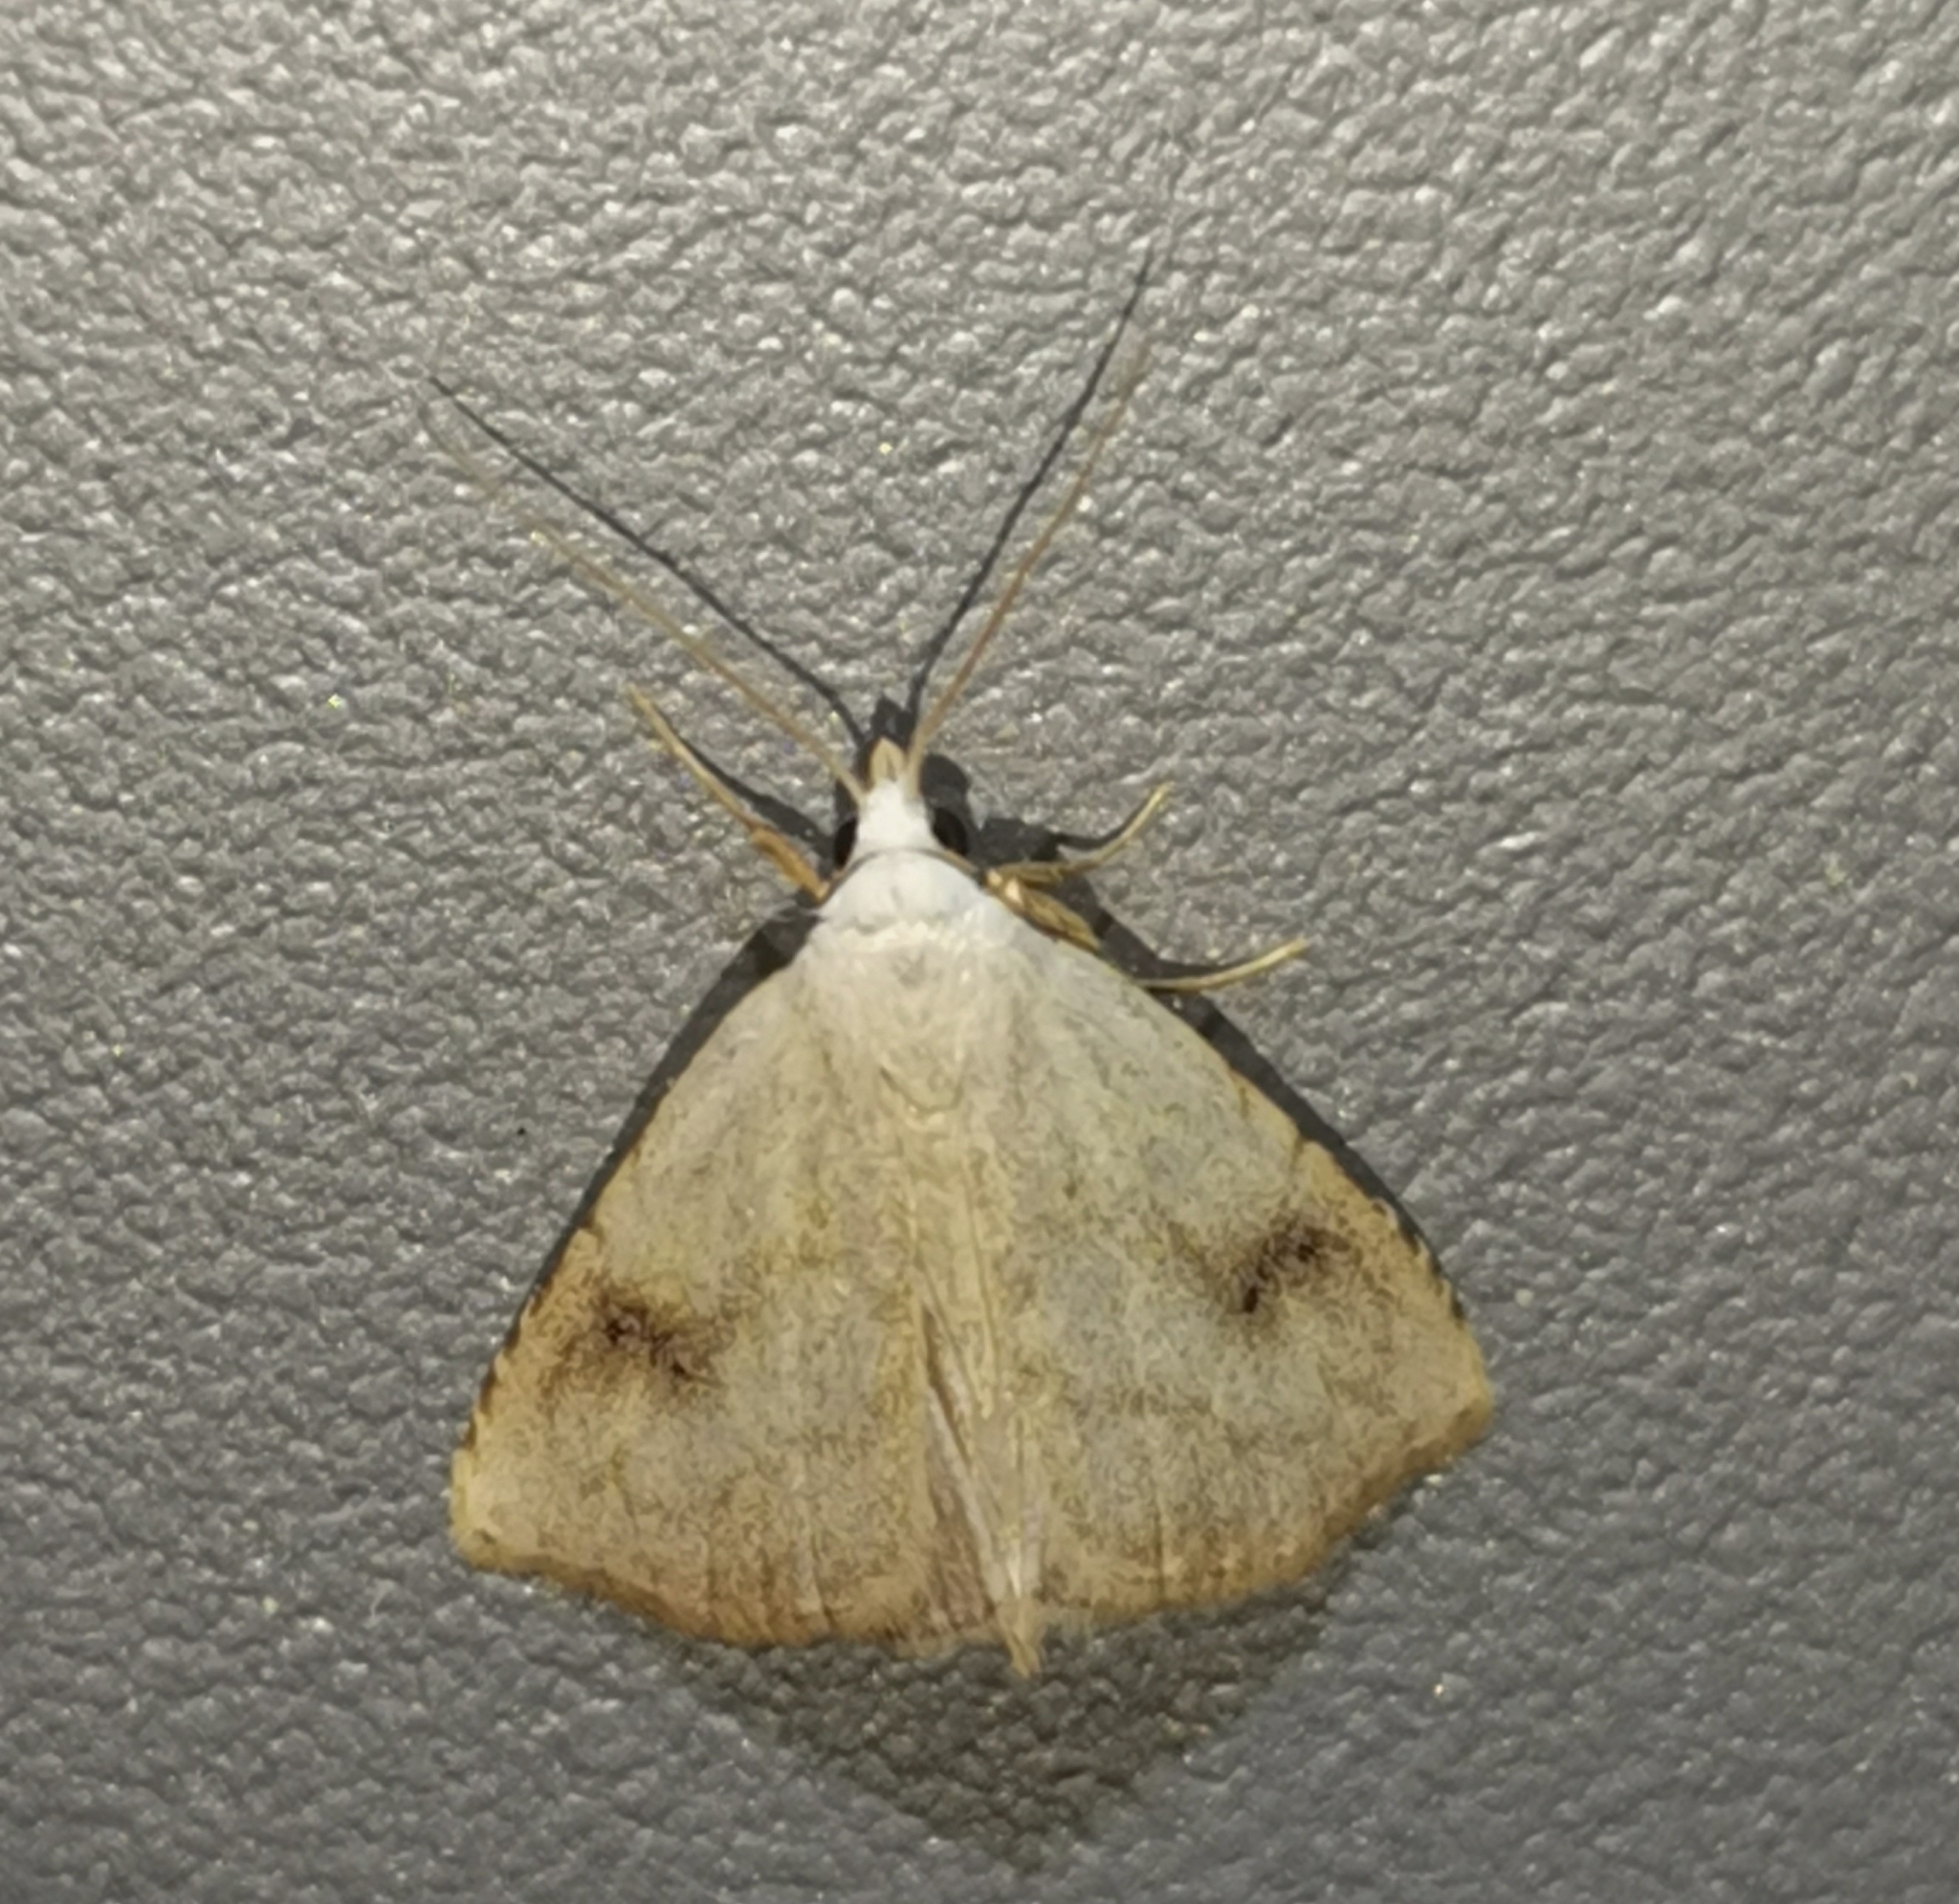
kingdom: Animalia
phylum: Arthropoda
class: Insecta
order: Lepidoptera
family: Erebidae
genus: Rivula
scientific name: Rivula sericealis
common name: Straw dot
